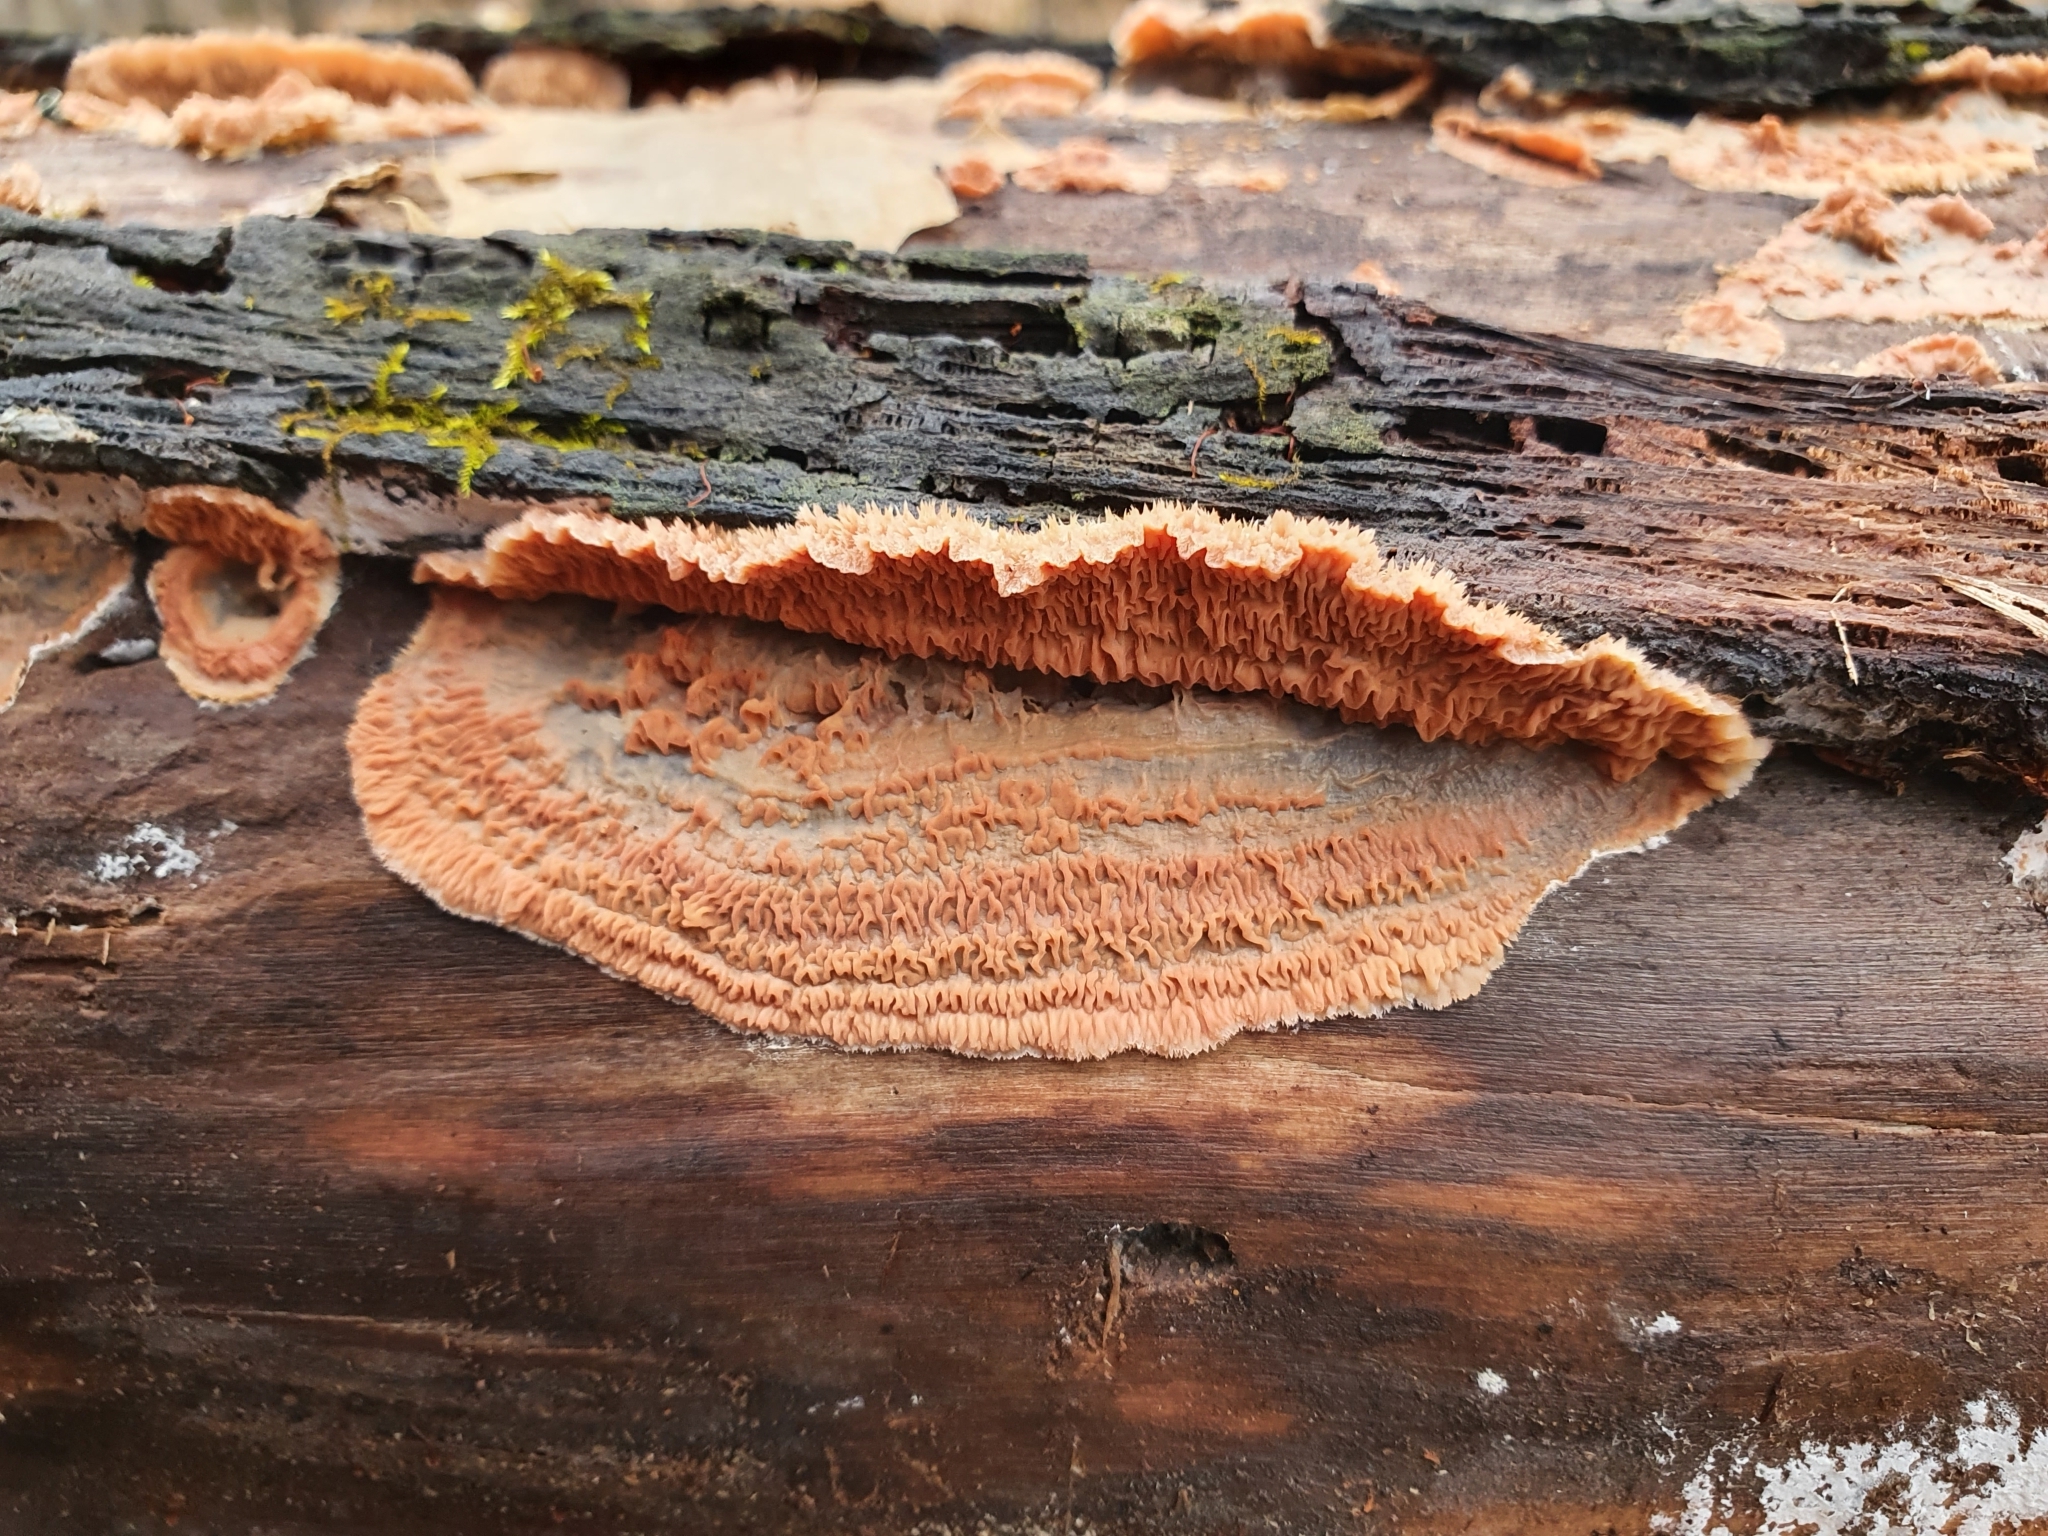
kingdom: Fungi
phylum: Basidiomycota
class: Agaricomycetes
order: Polyporales
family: Meruliaceae
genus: Phlebia
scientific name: Phlebia tremellosa
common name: Jelly rot
